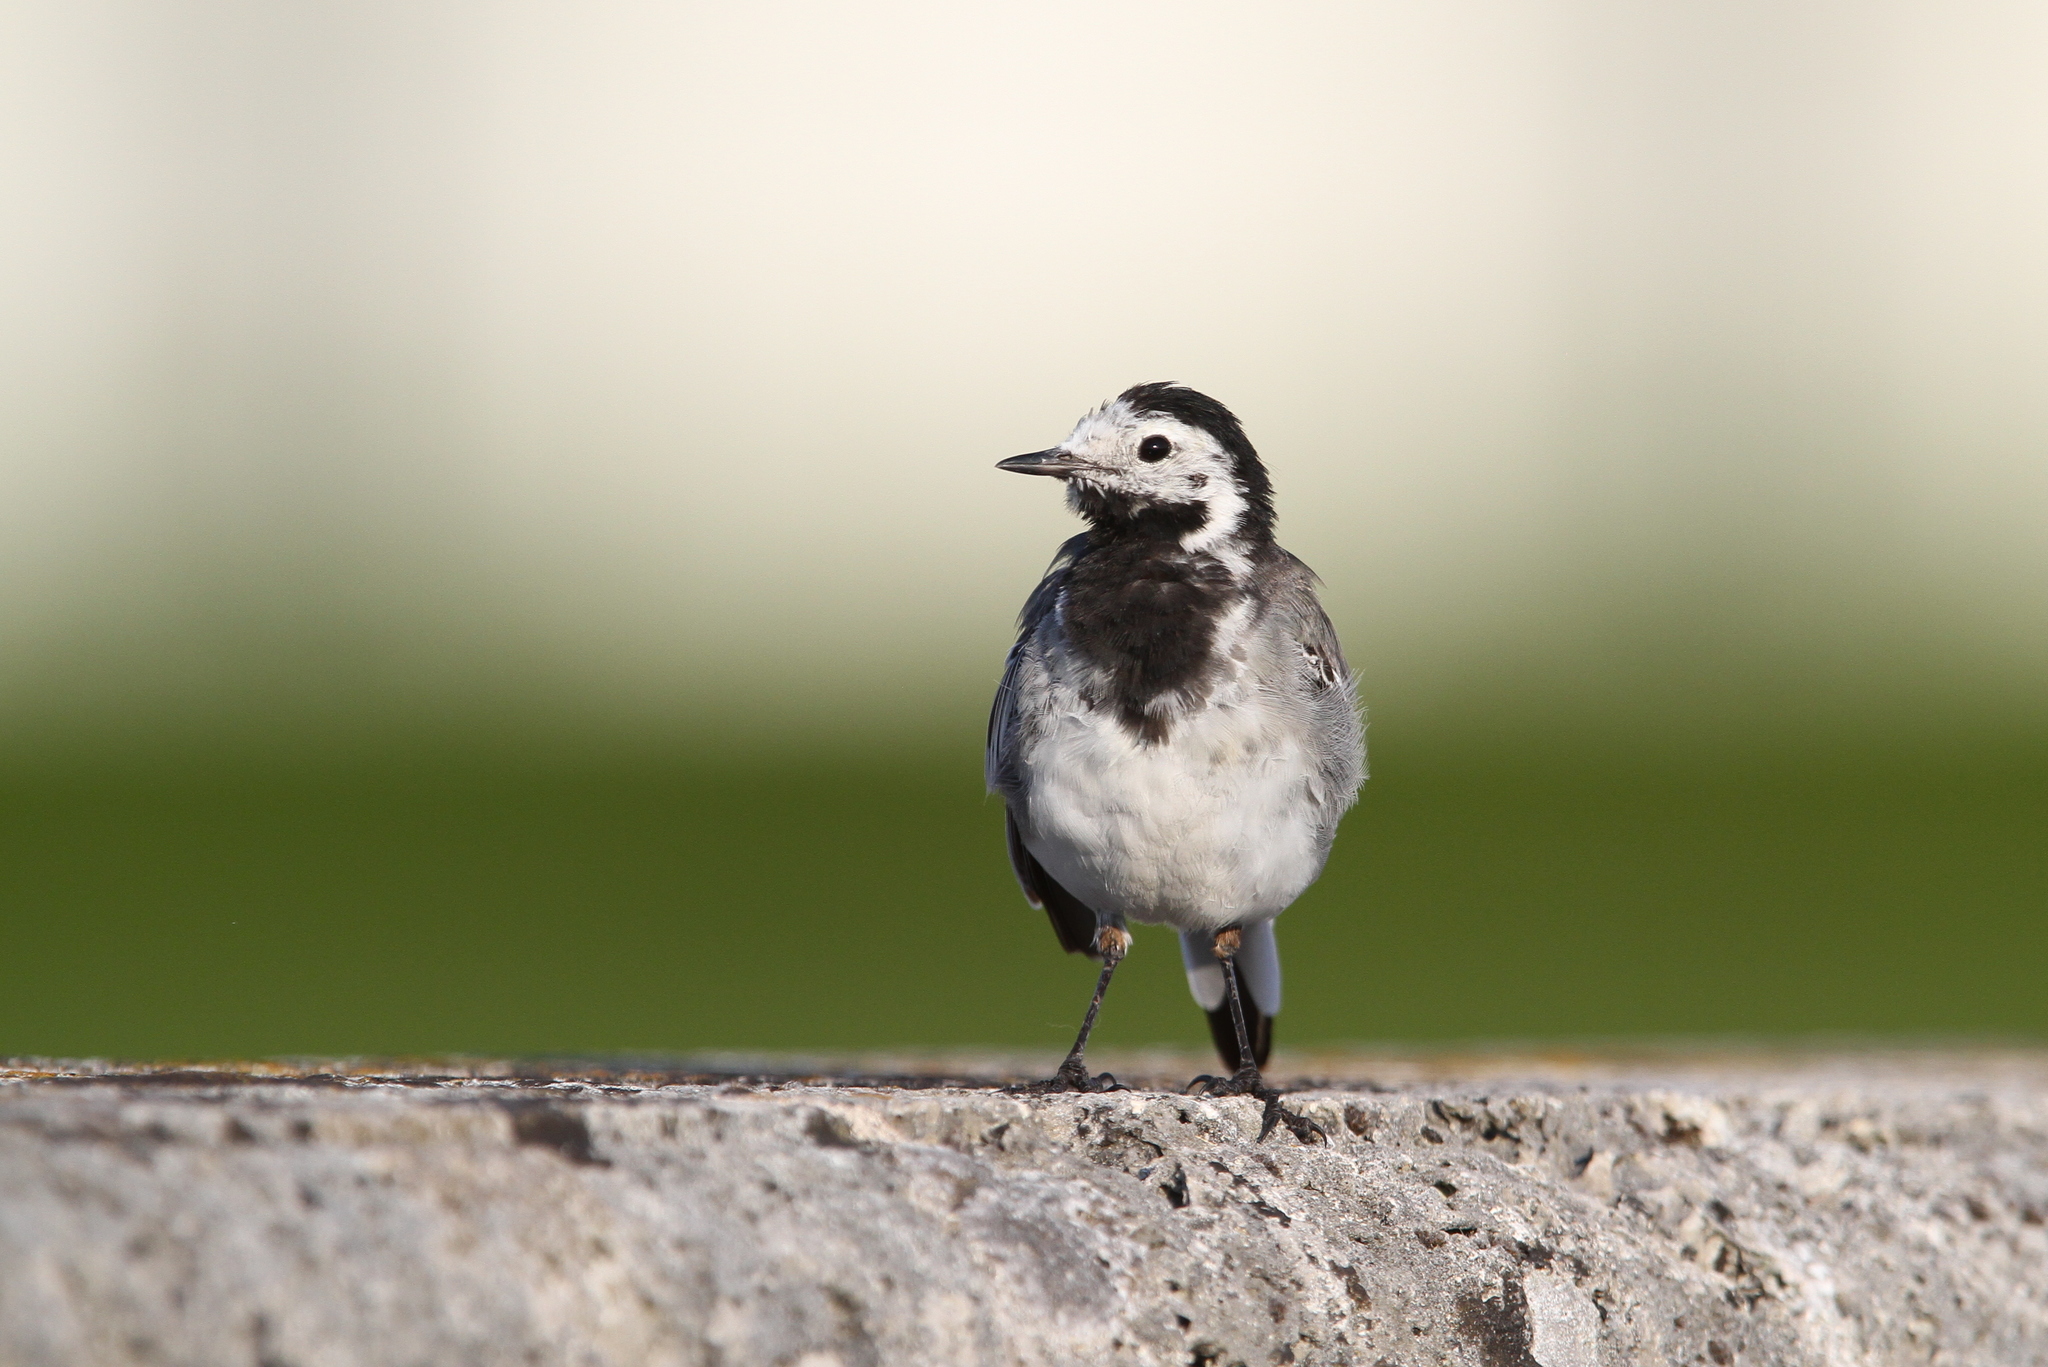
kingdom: Animalia
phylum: Chordata
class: Aves
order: Passeriformes
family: Motacillidae
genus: Motacilla
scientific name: Motacilla alba
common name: White wagtail
